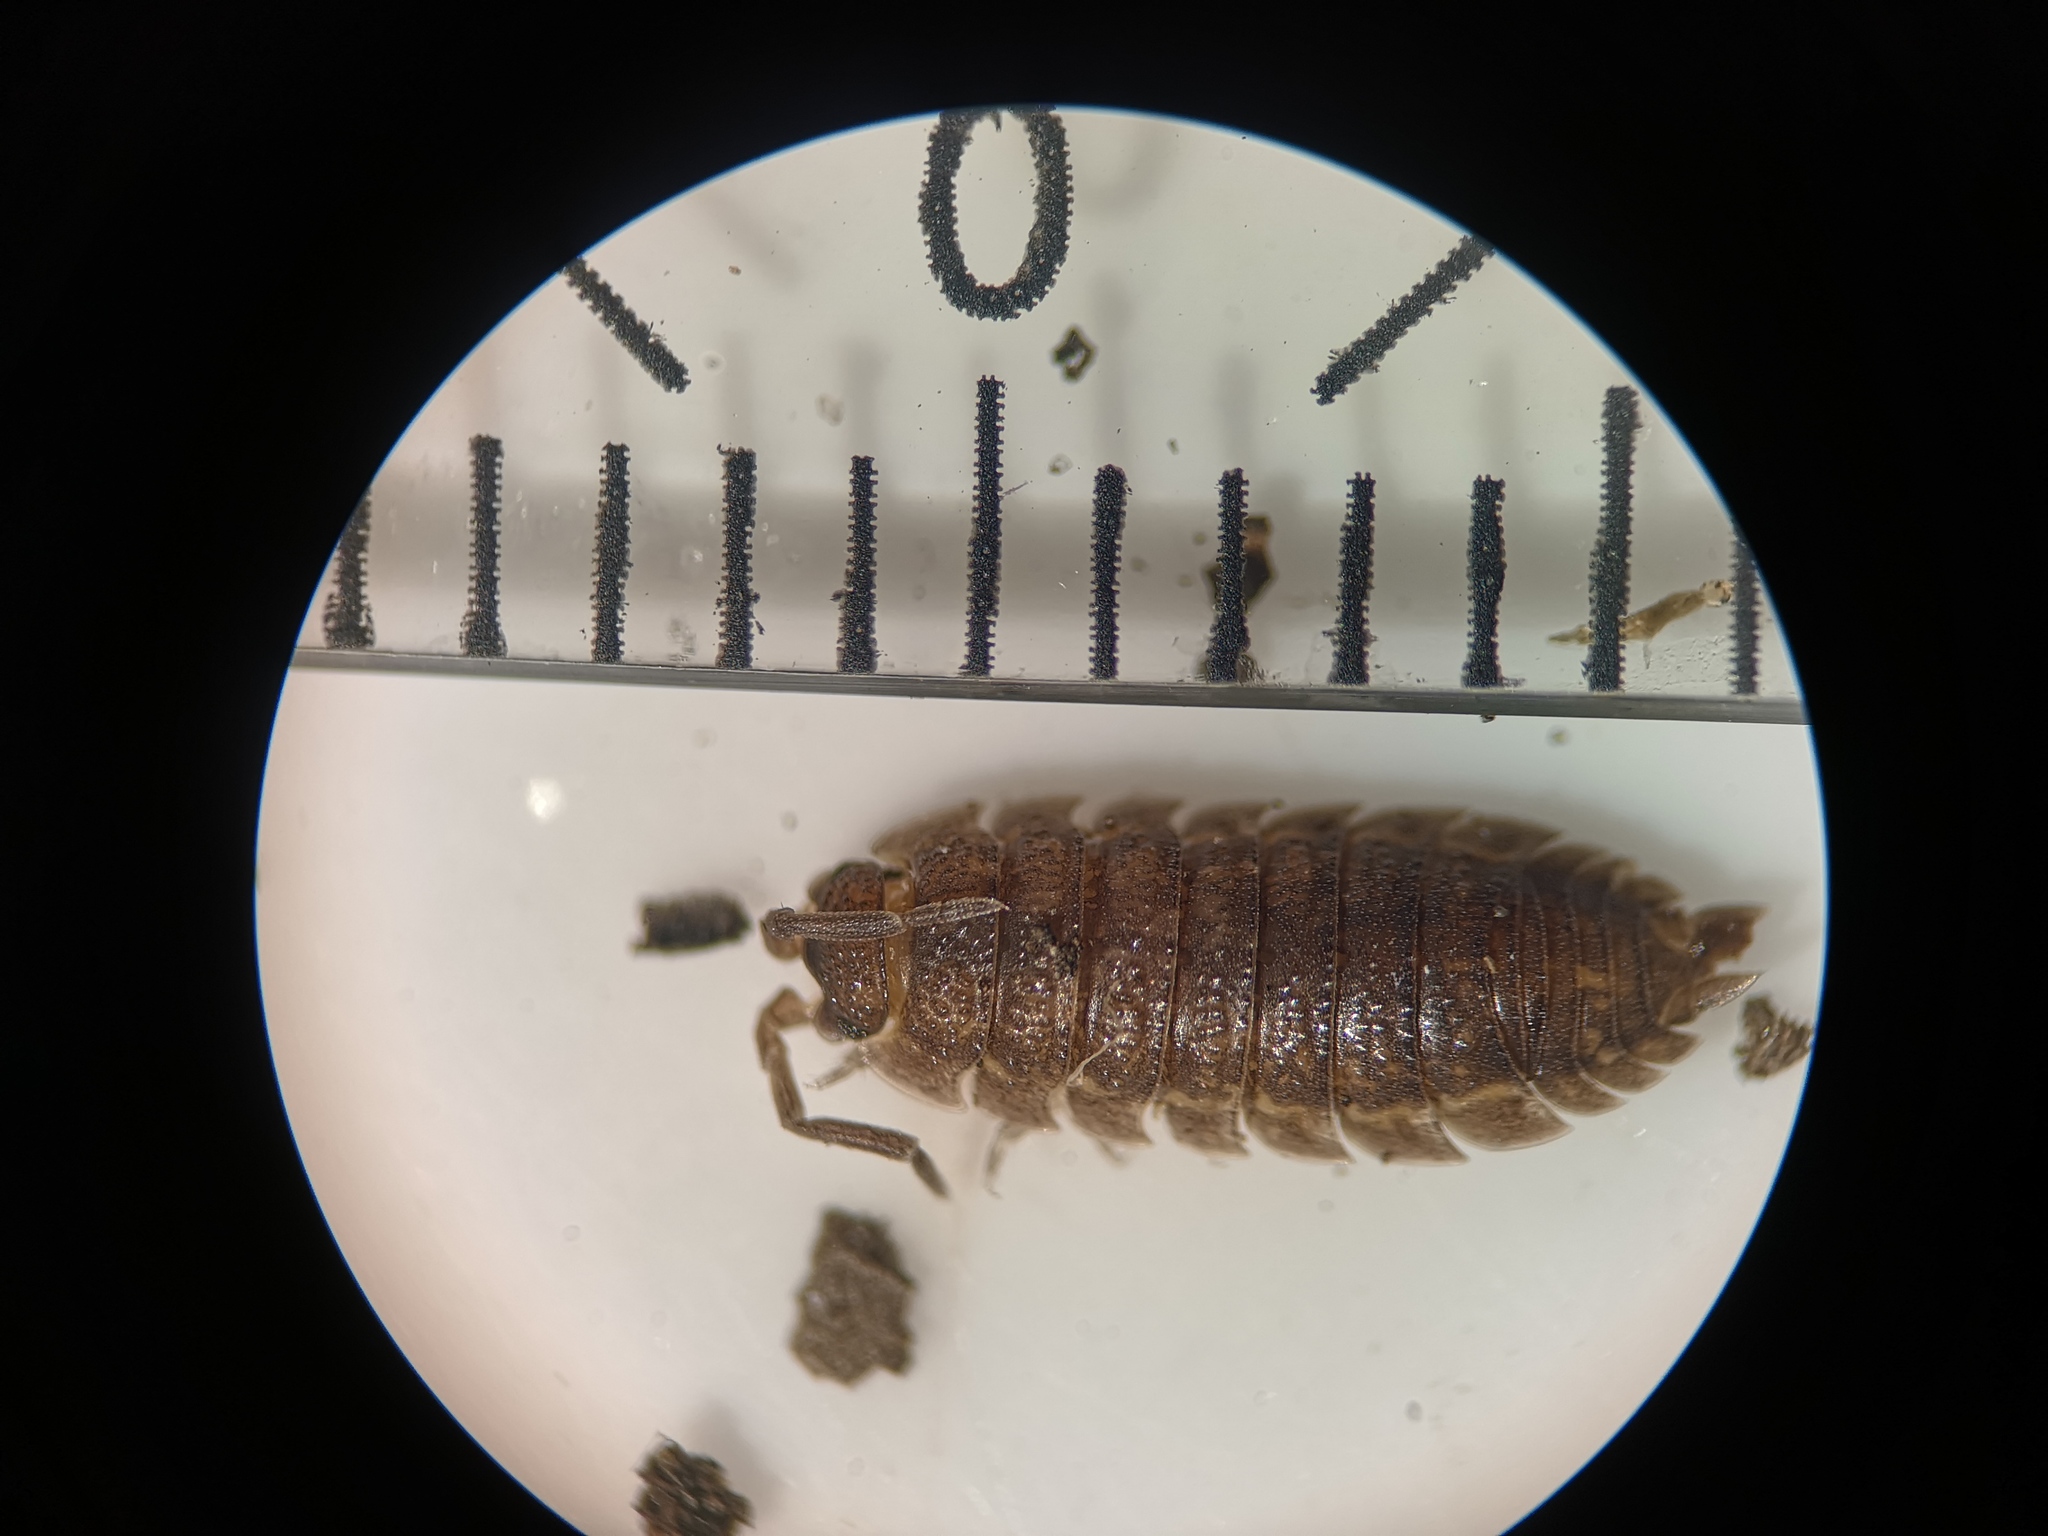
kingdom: Animalia
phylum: Arthropoda
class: Malacostraca
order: Isopoda
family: Porcellionidae
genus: Porcellio
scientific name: Porcellio scaber
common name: Common rough woodlouse
